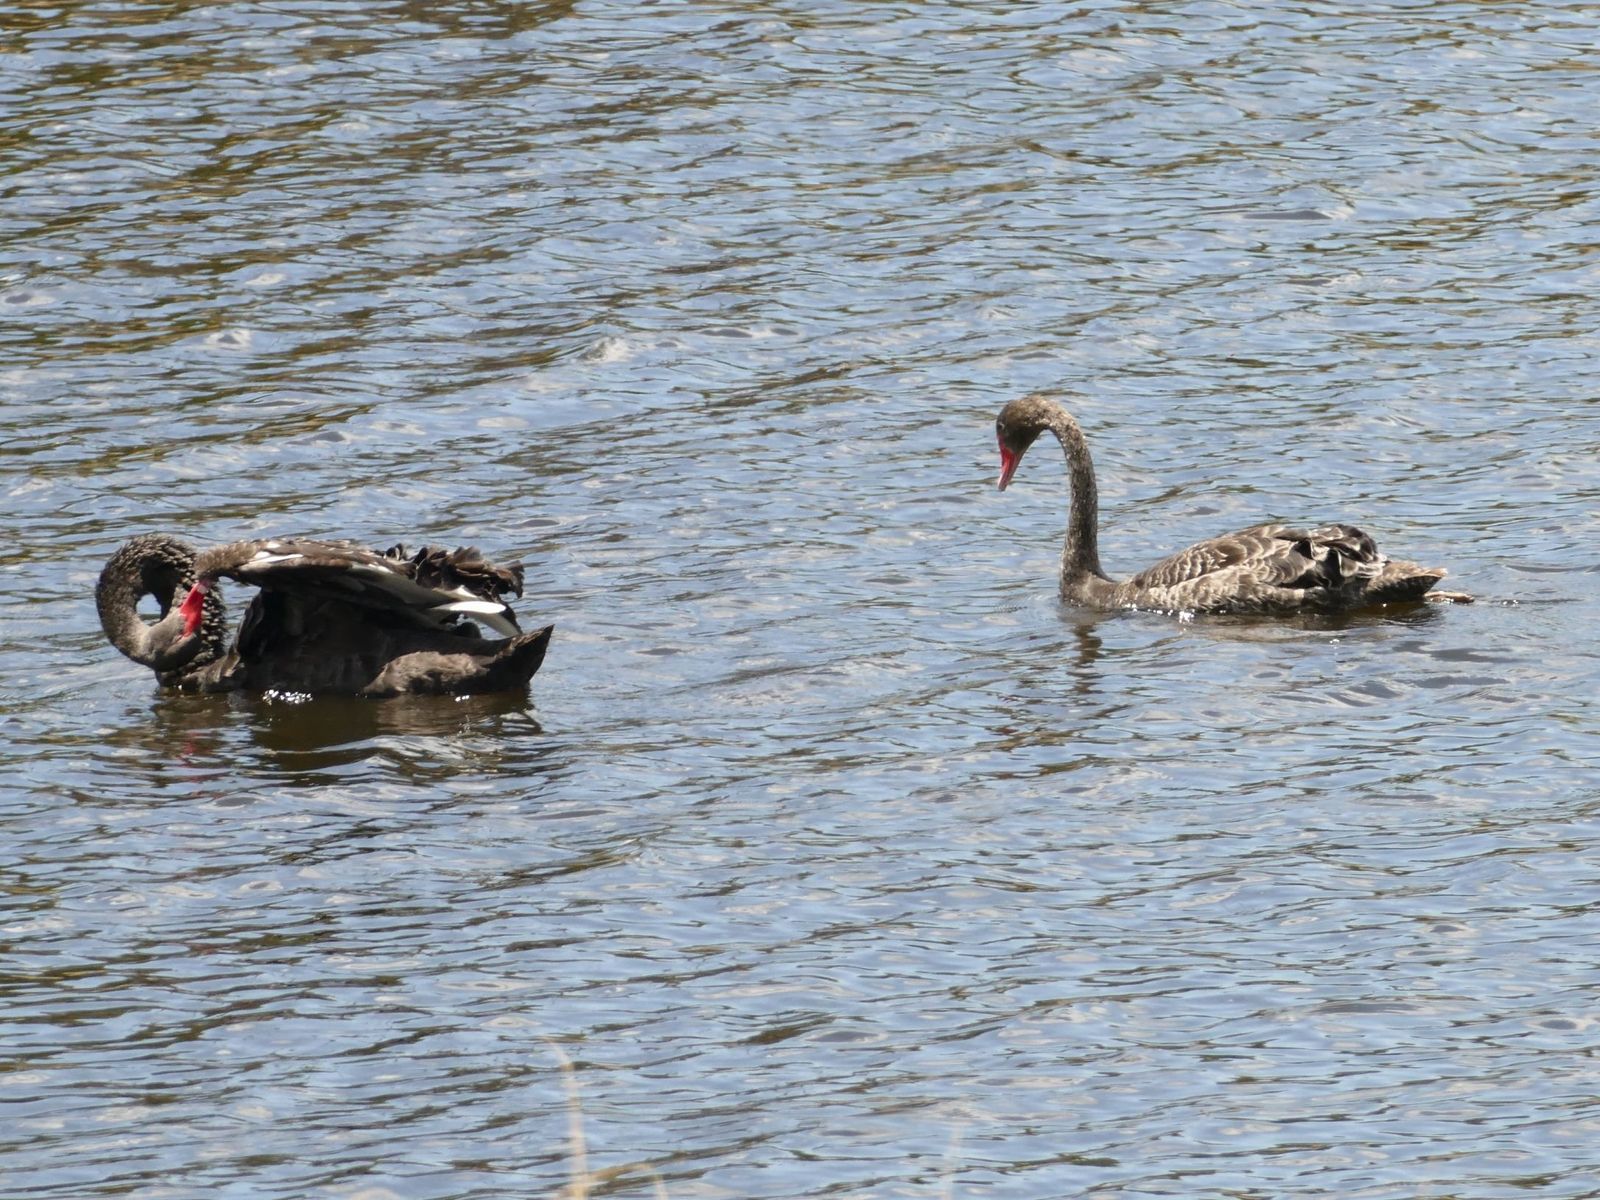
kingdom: Animalia
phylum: Chordata
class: Aves
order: Anseriformes
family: Anatidae
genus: Cygnus
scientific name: Cygnus atratus
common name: Black swan
